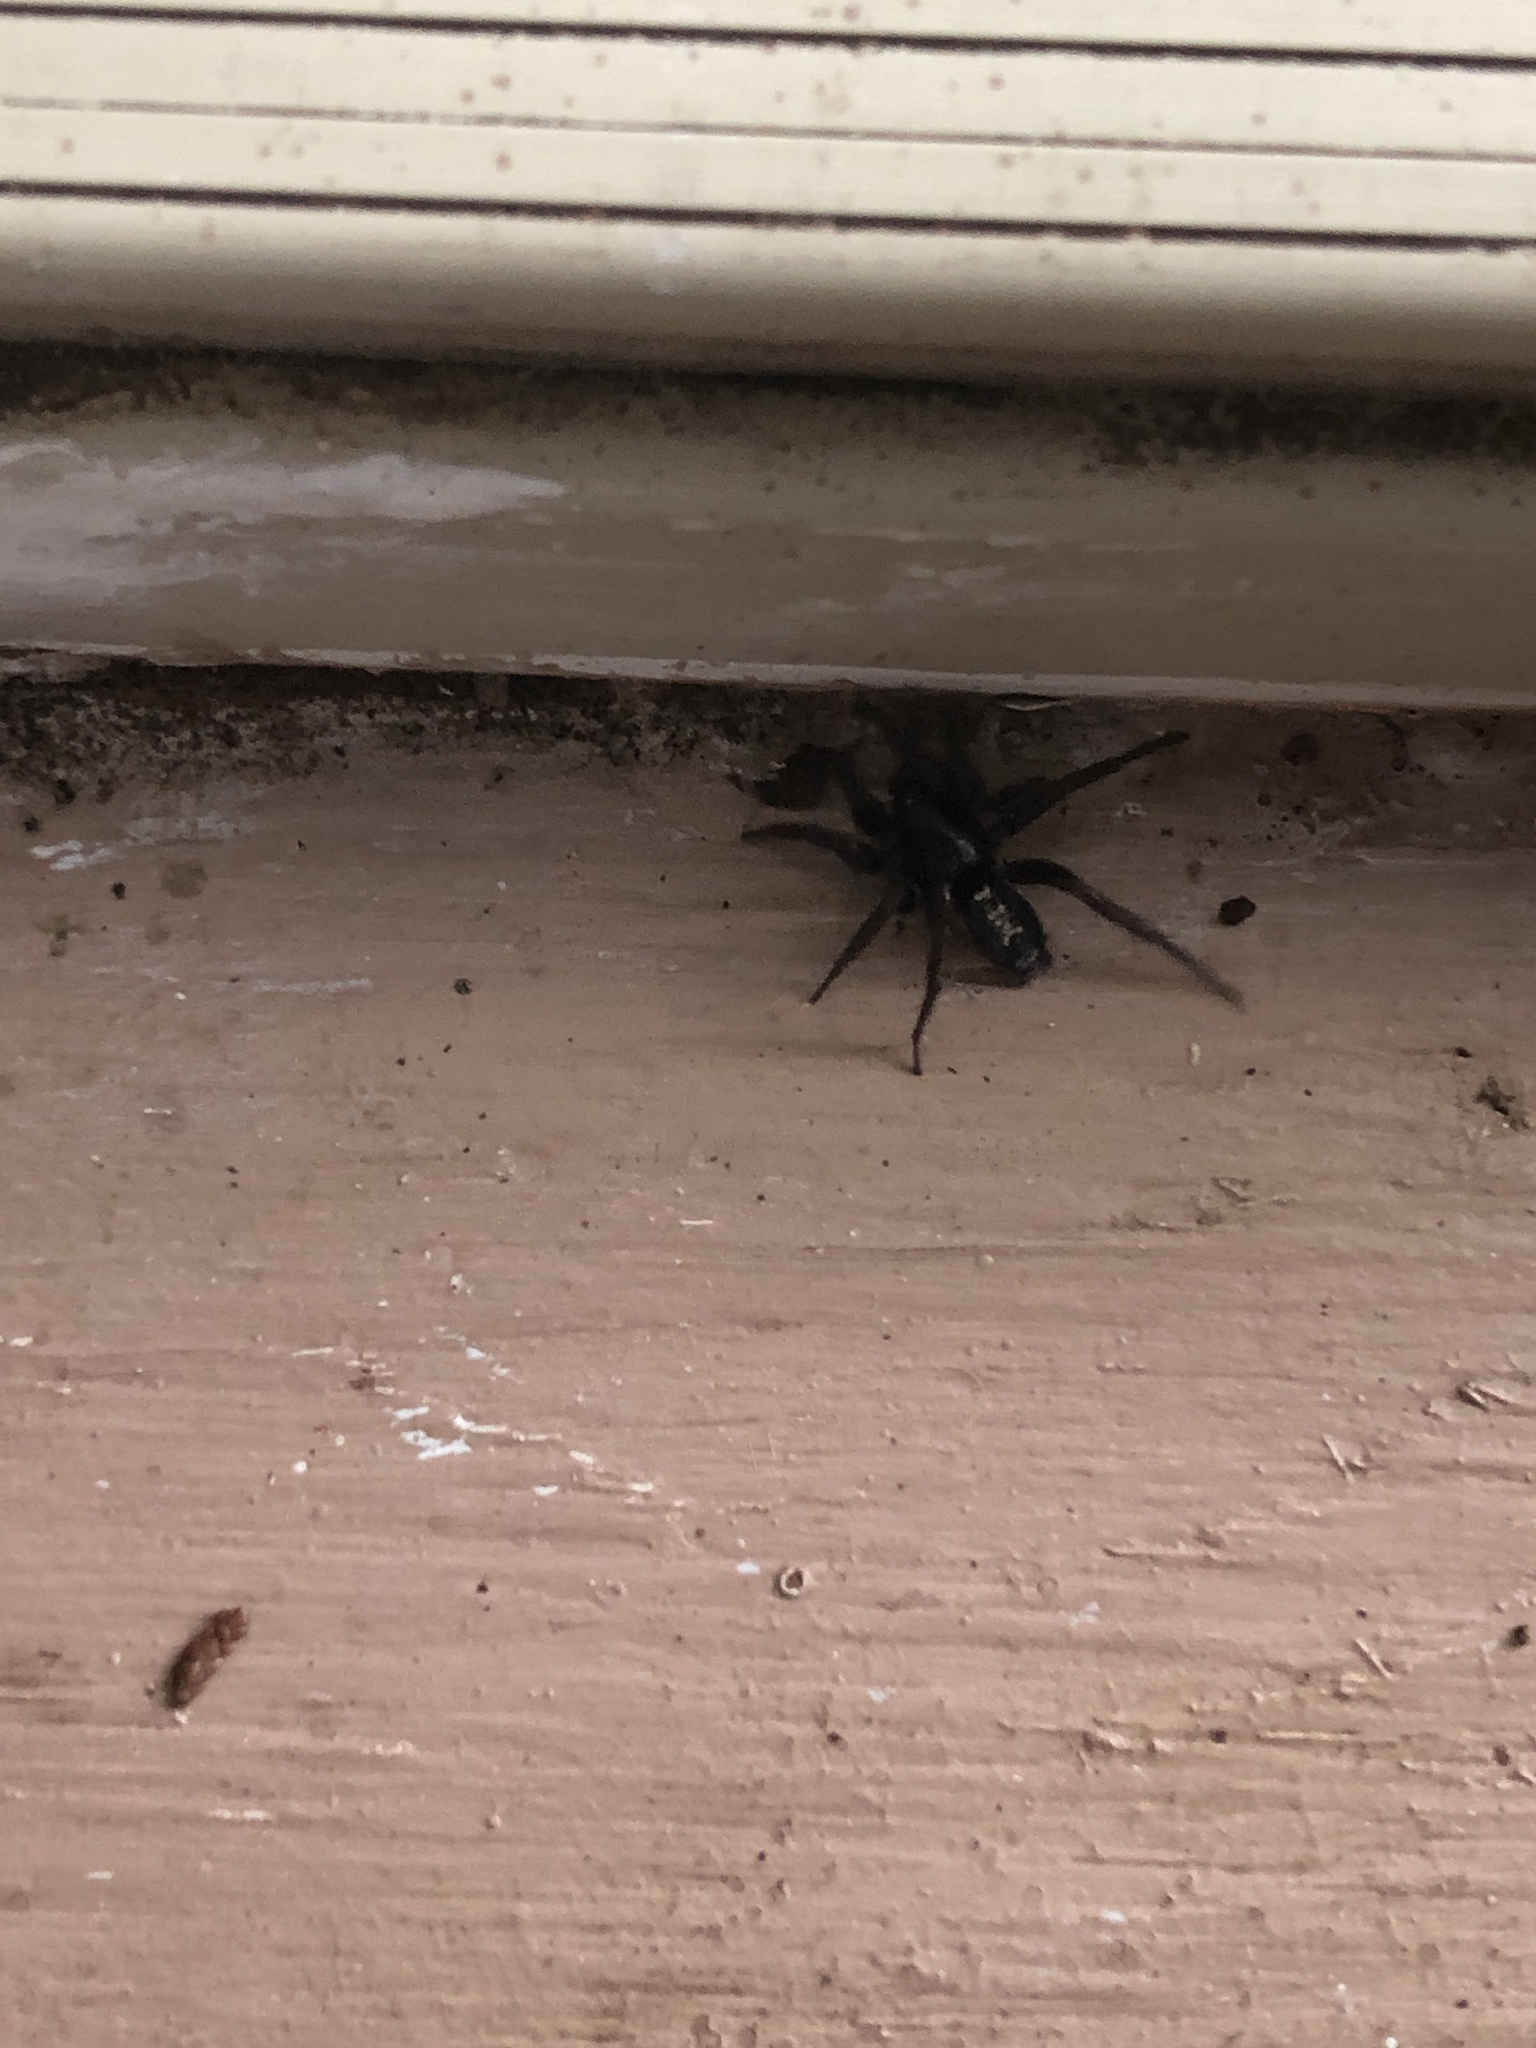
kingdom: Animalia
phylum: Arthropoda
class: Arachnida
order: Araneae
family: Gnaphosidae
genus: Herpyllus
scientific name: Herpyllus ecclesiasticus
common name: Eastern parson spider
